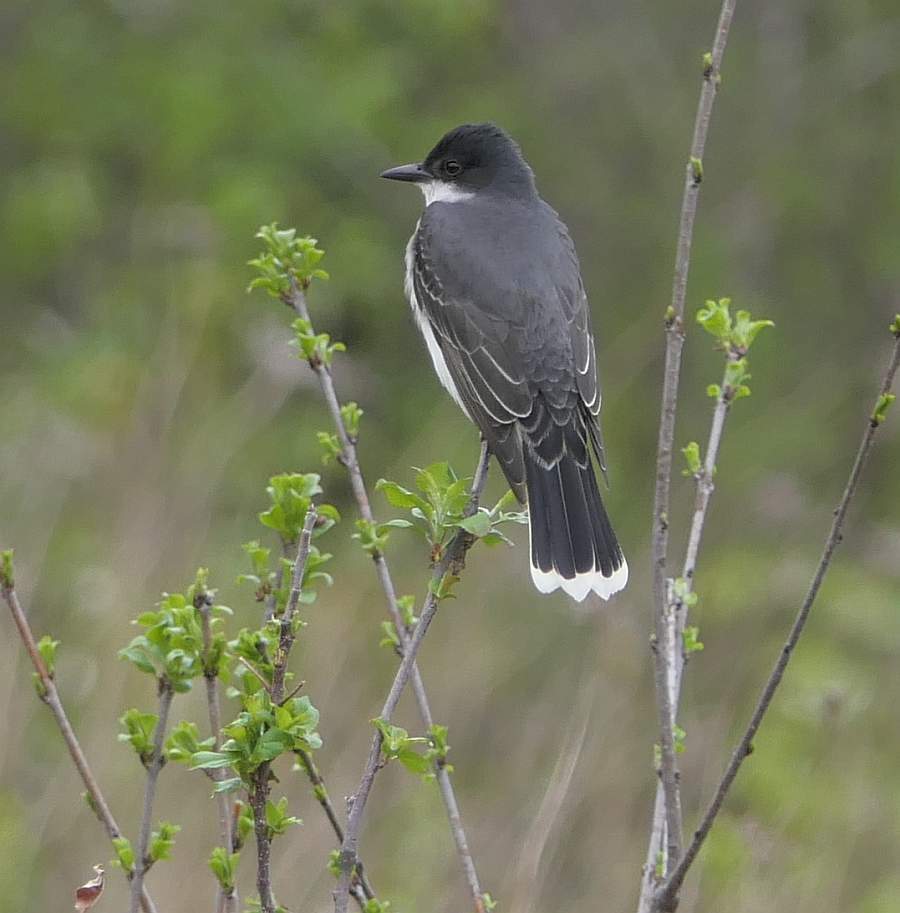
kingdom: Animalia
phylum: Chordata
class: Aves
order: Passeriformes
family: Tyrannidae
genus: Tyrannus
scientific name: Tyrannus tyrannus
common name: Eastern kingbird
